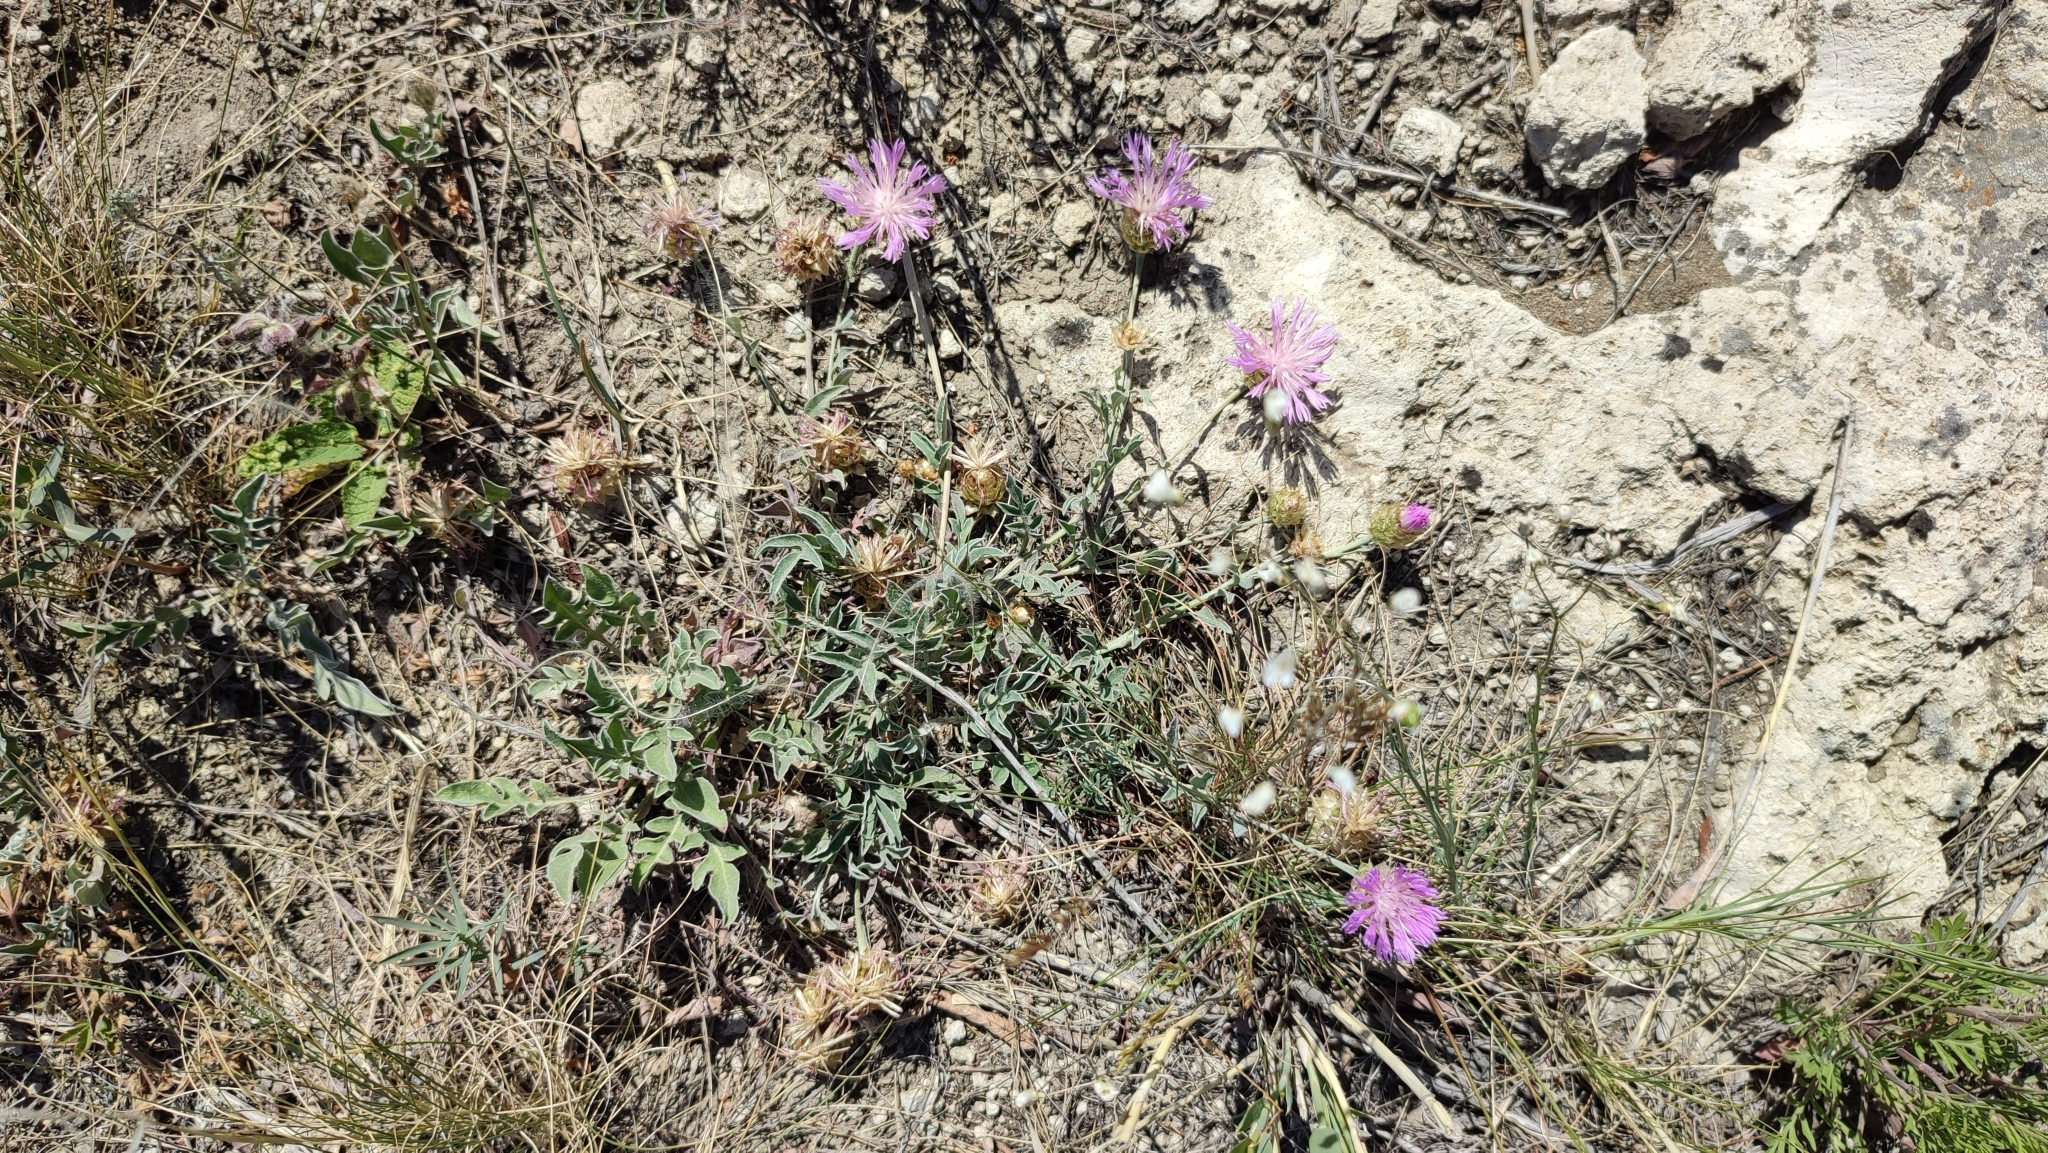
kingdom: Plantae
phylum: Tracheophyta
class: Magnoliopsida
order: Asterales
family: Asteraceae
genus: Psephellus
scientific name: Psephellus turgaicus
